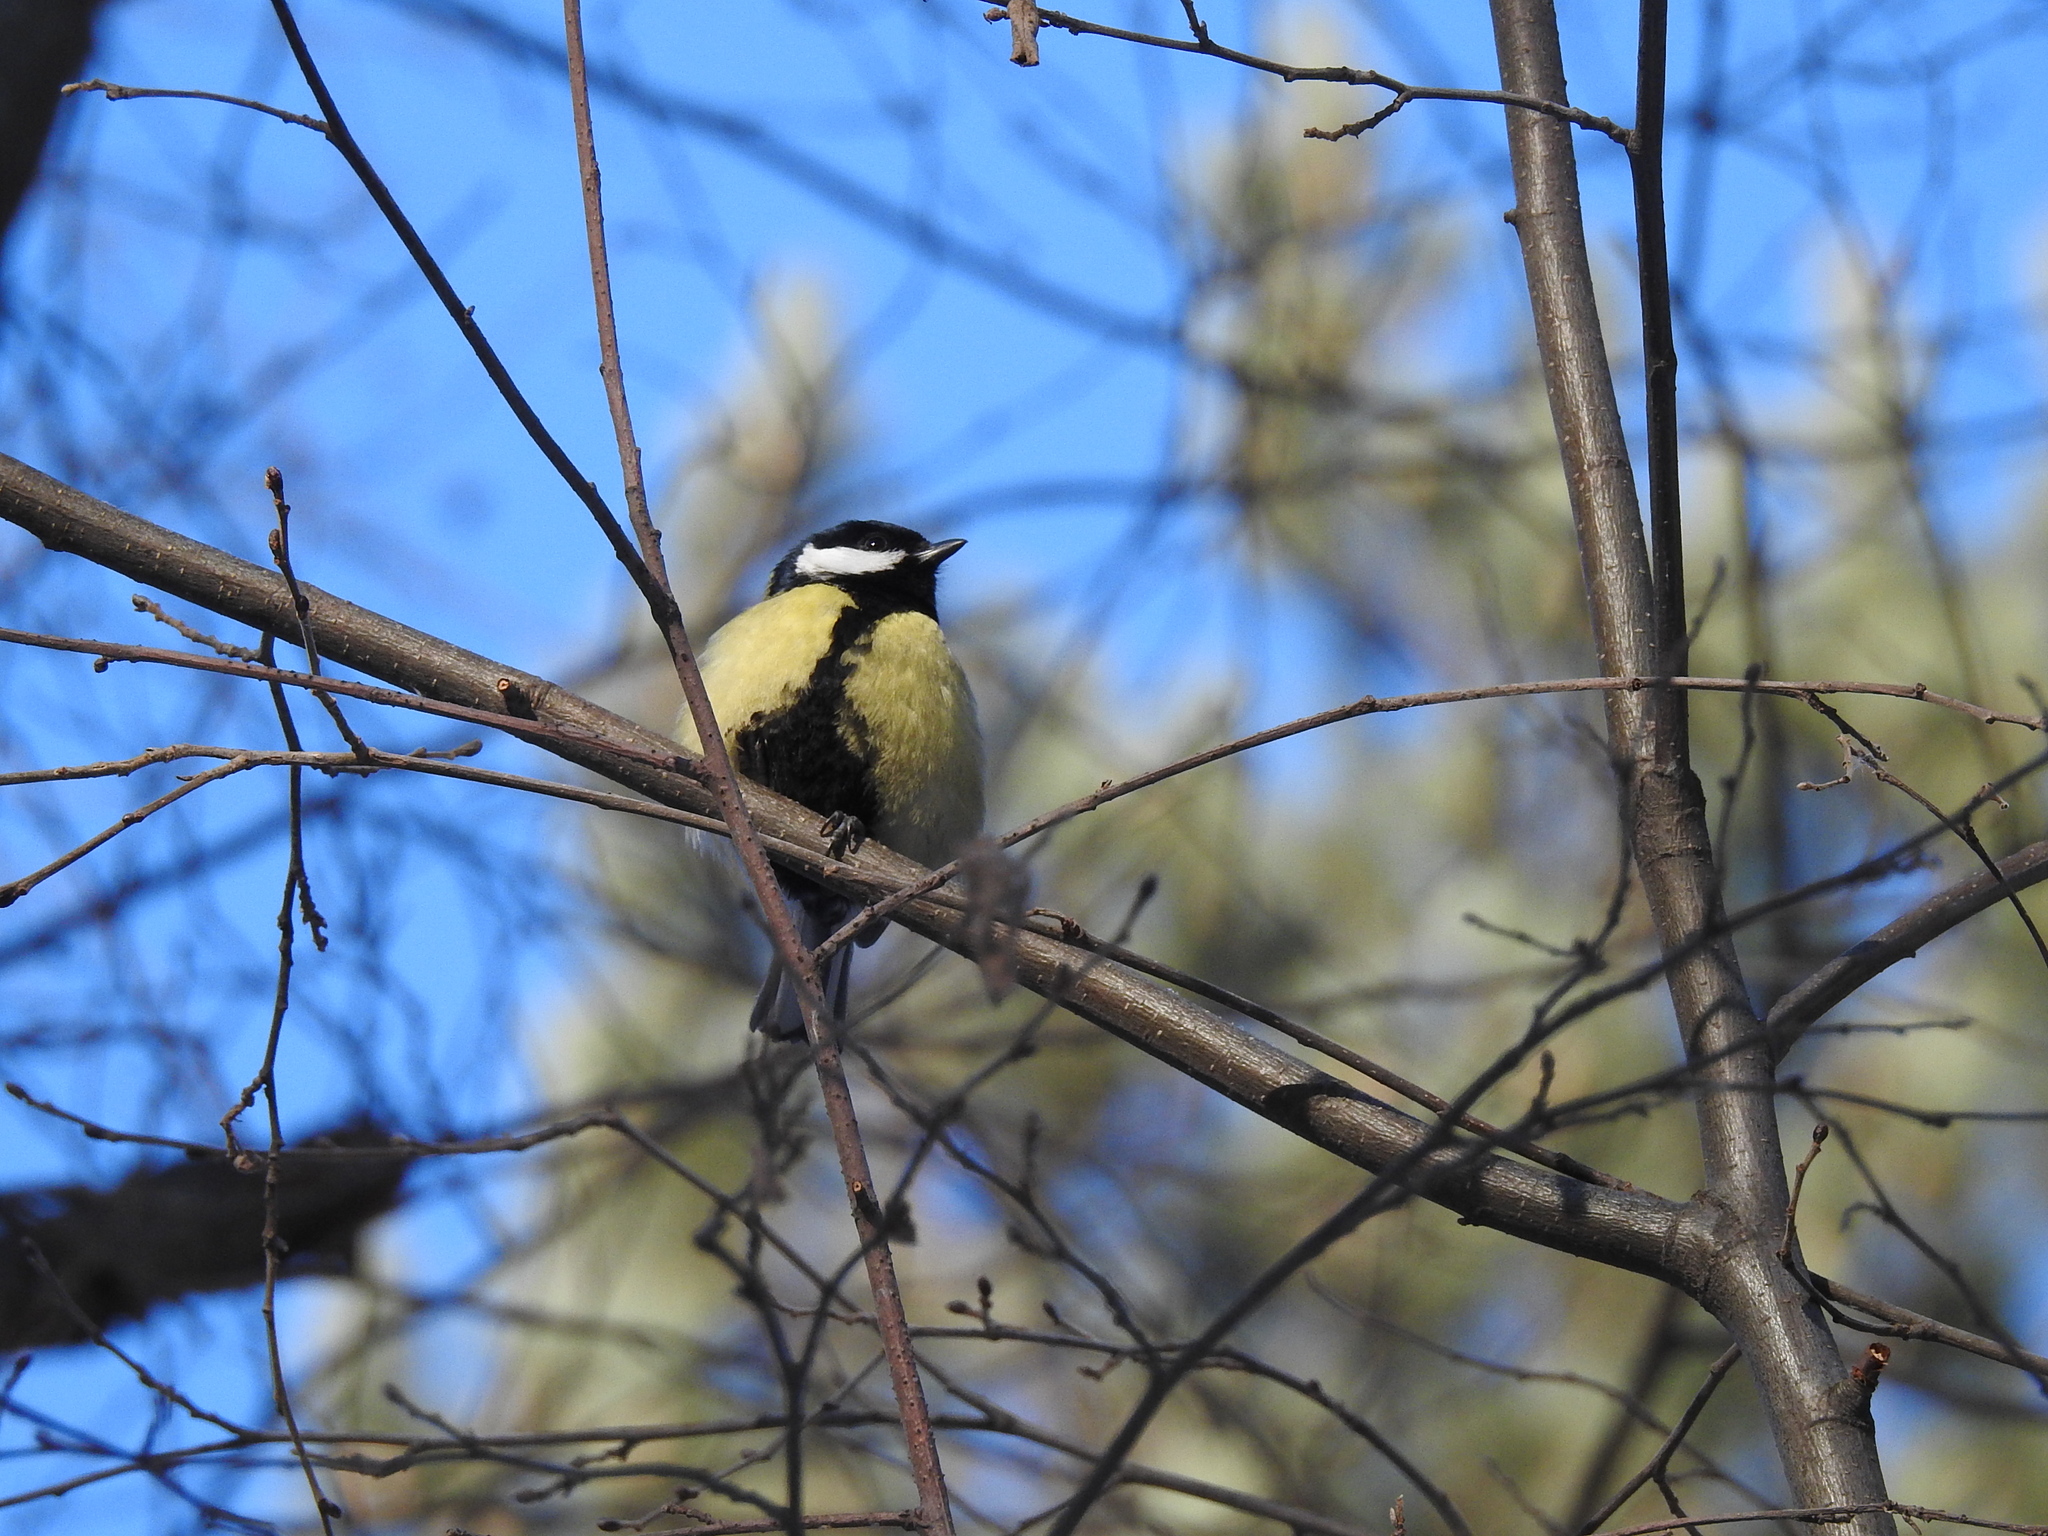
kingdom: Animalia
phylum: Chordata
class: Aves
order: Passeriformes
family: Paridae
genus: Parus
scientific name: Parus major
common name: Great tit
